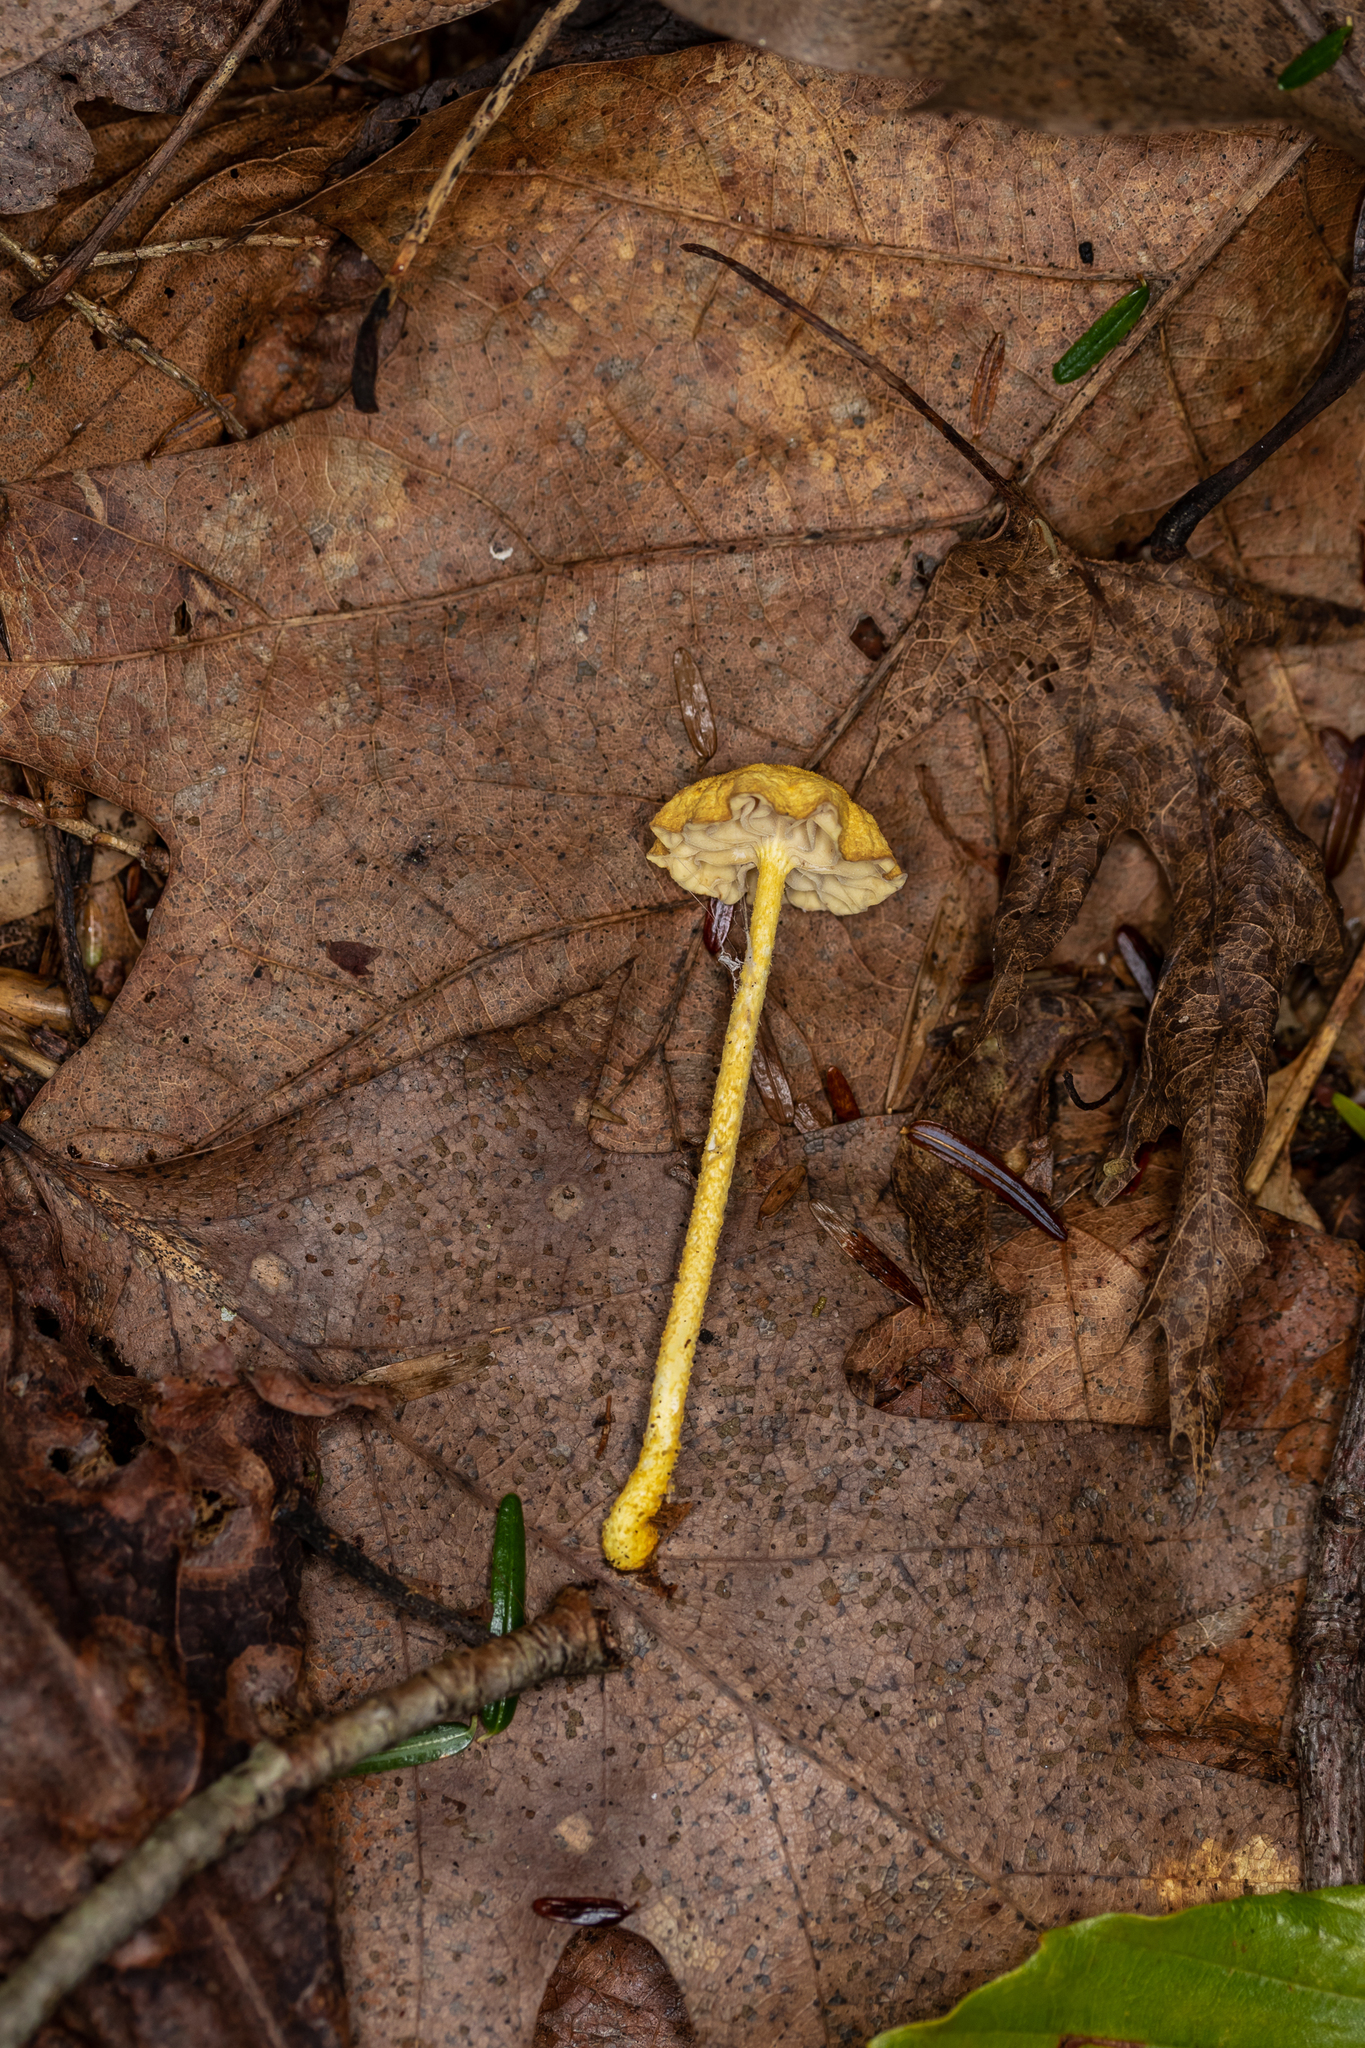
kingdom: Fungi
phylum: Basidiomycota
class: Agaricomycetes
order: Agaricales
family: Physalacriaceae
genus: Cyptotrama
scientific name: Cyptotrama chrysopepla
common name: Golden coincap
